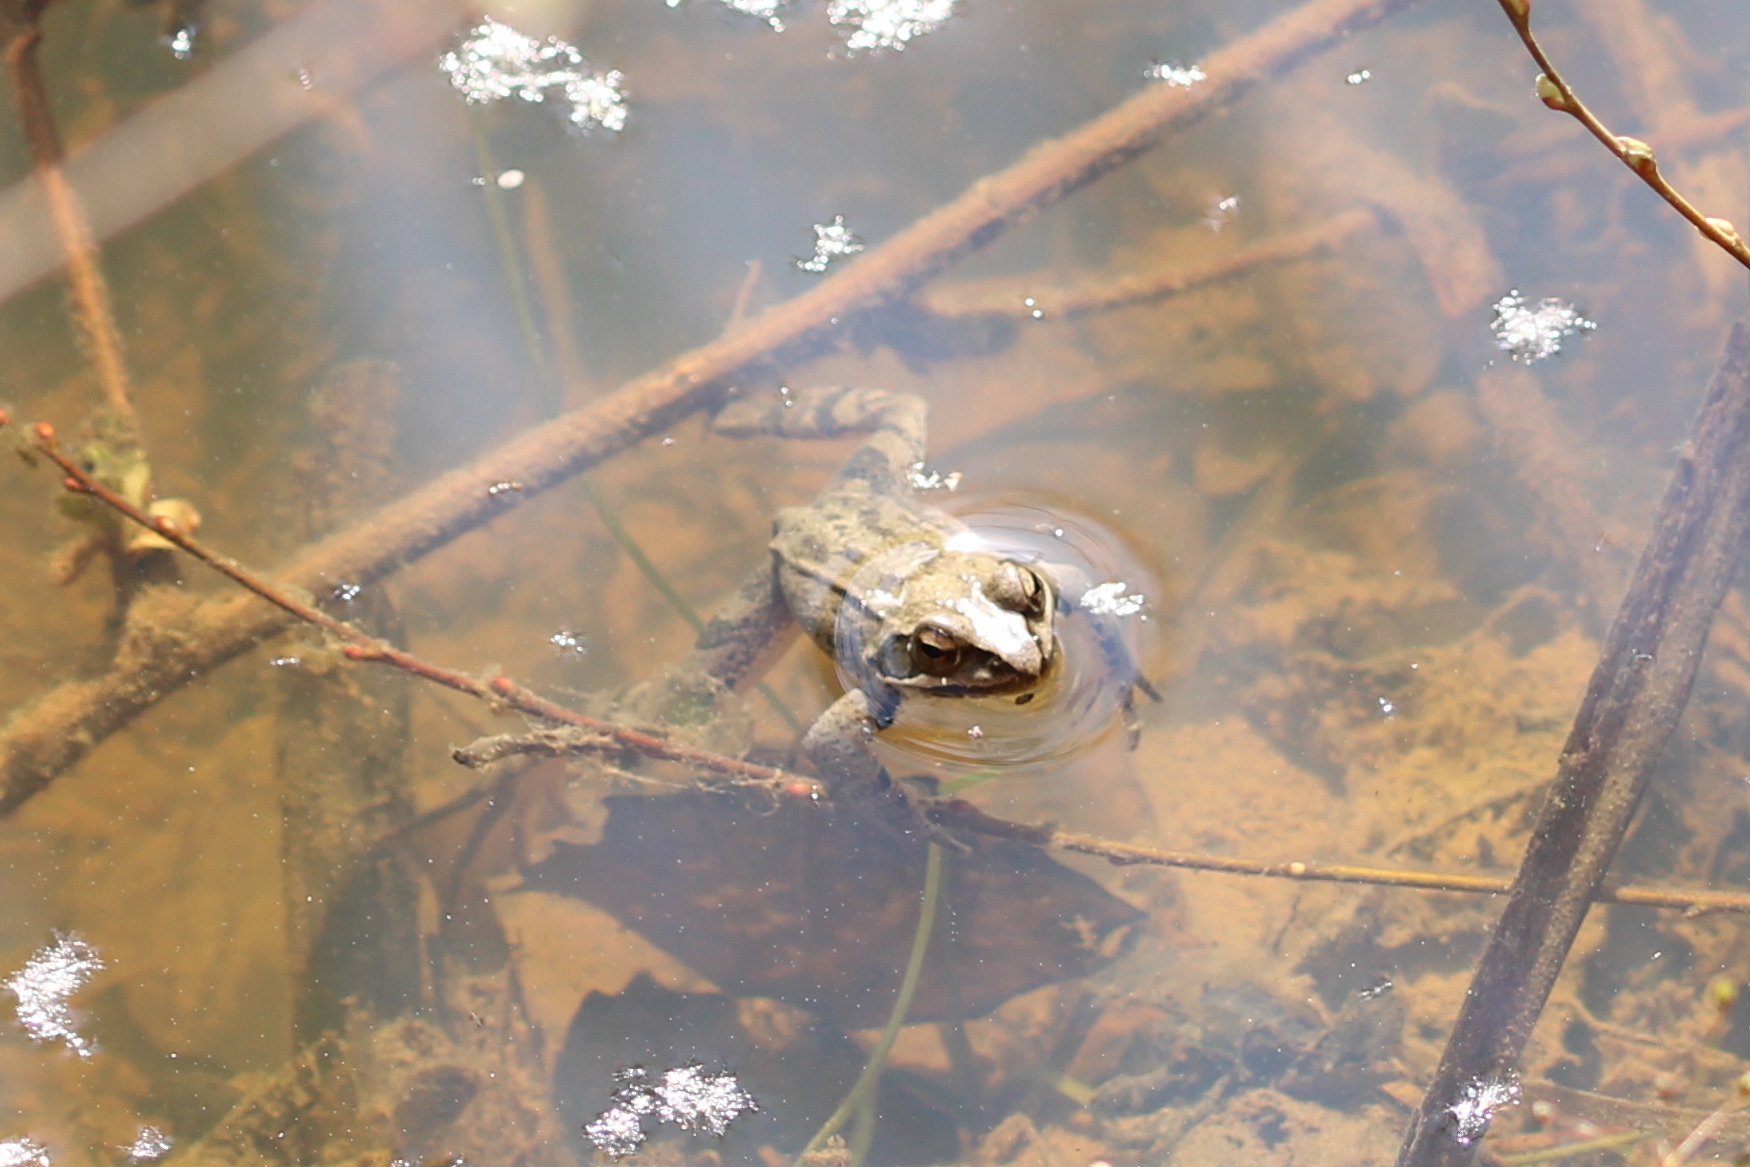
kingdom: Animalia
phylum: Chordata
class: Amphibia
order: Anura
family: Ranidae
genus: Rana
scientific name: Rana dalmatina
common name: Agile frog
